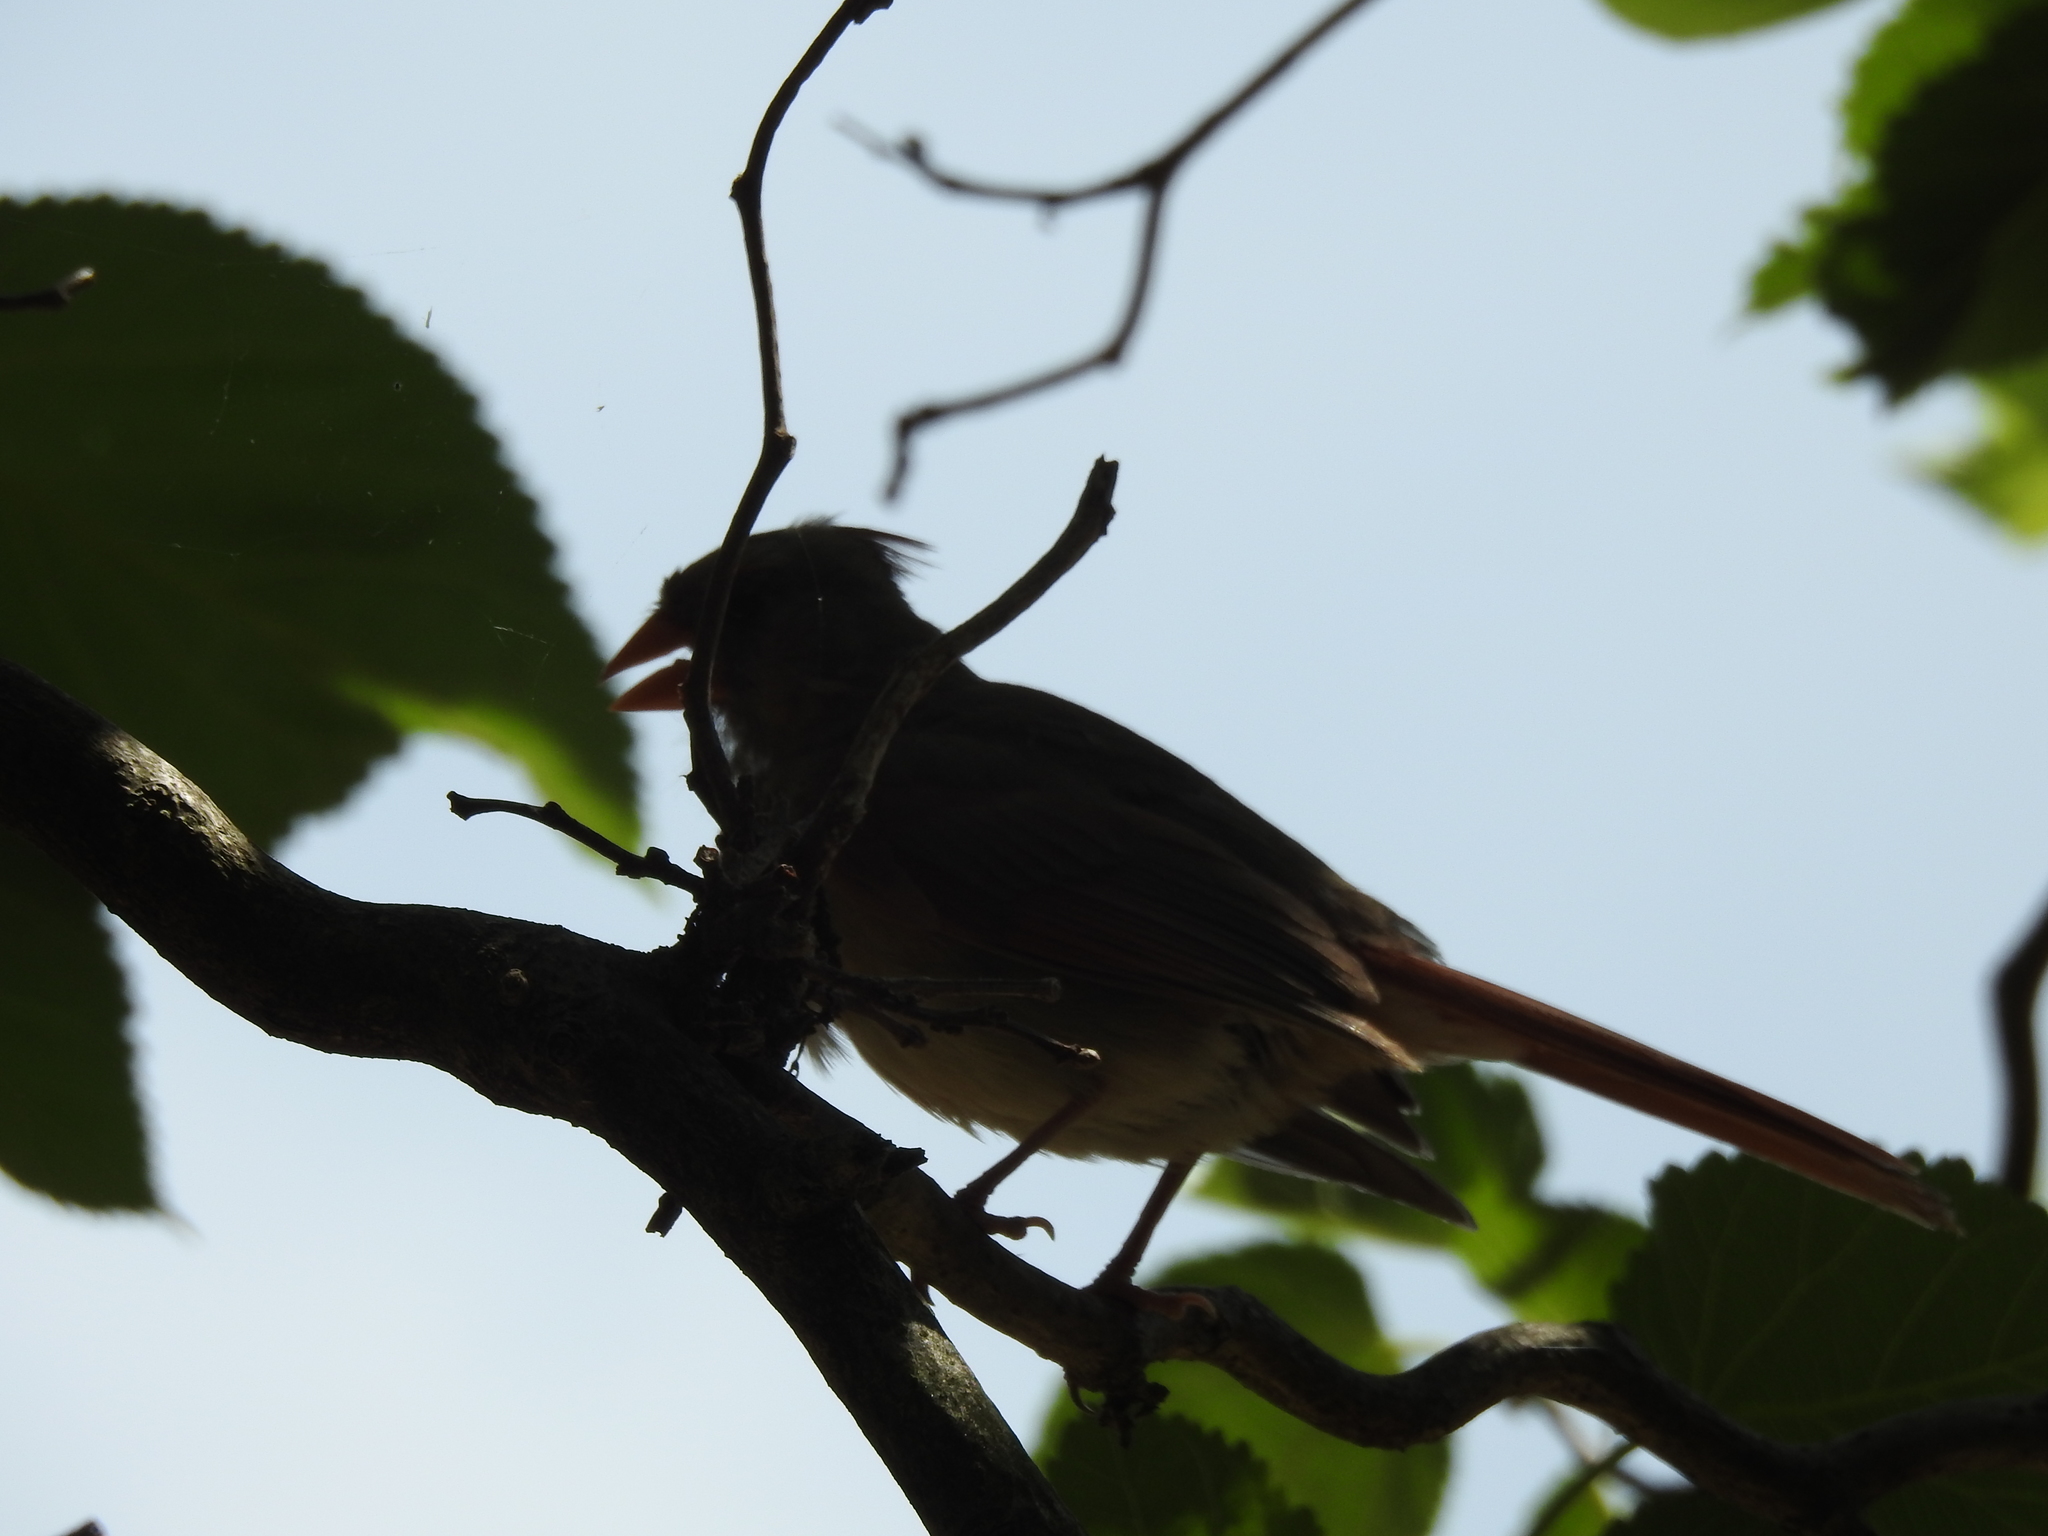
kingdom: Animalia
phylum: Chordata
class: Aves
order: Passeriformes
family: Cardinalidae
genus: Cardinalis
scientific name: Cardinalis cardinalis
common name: Northern cardinal
